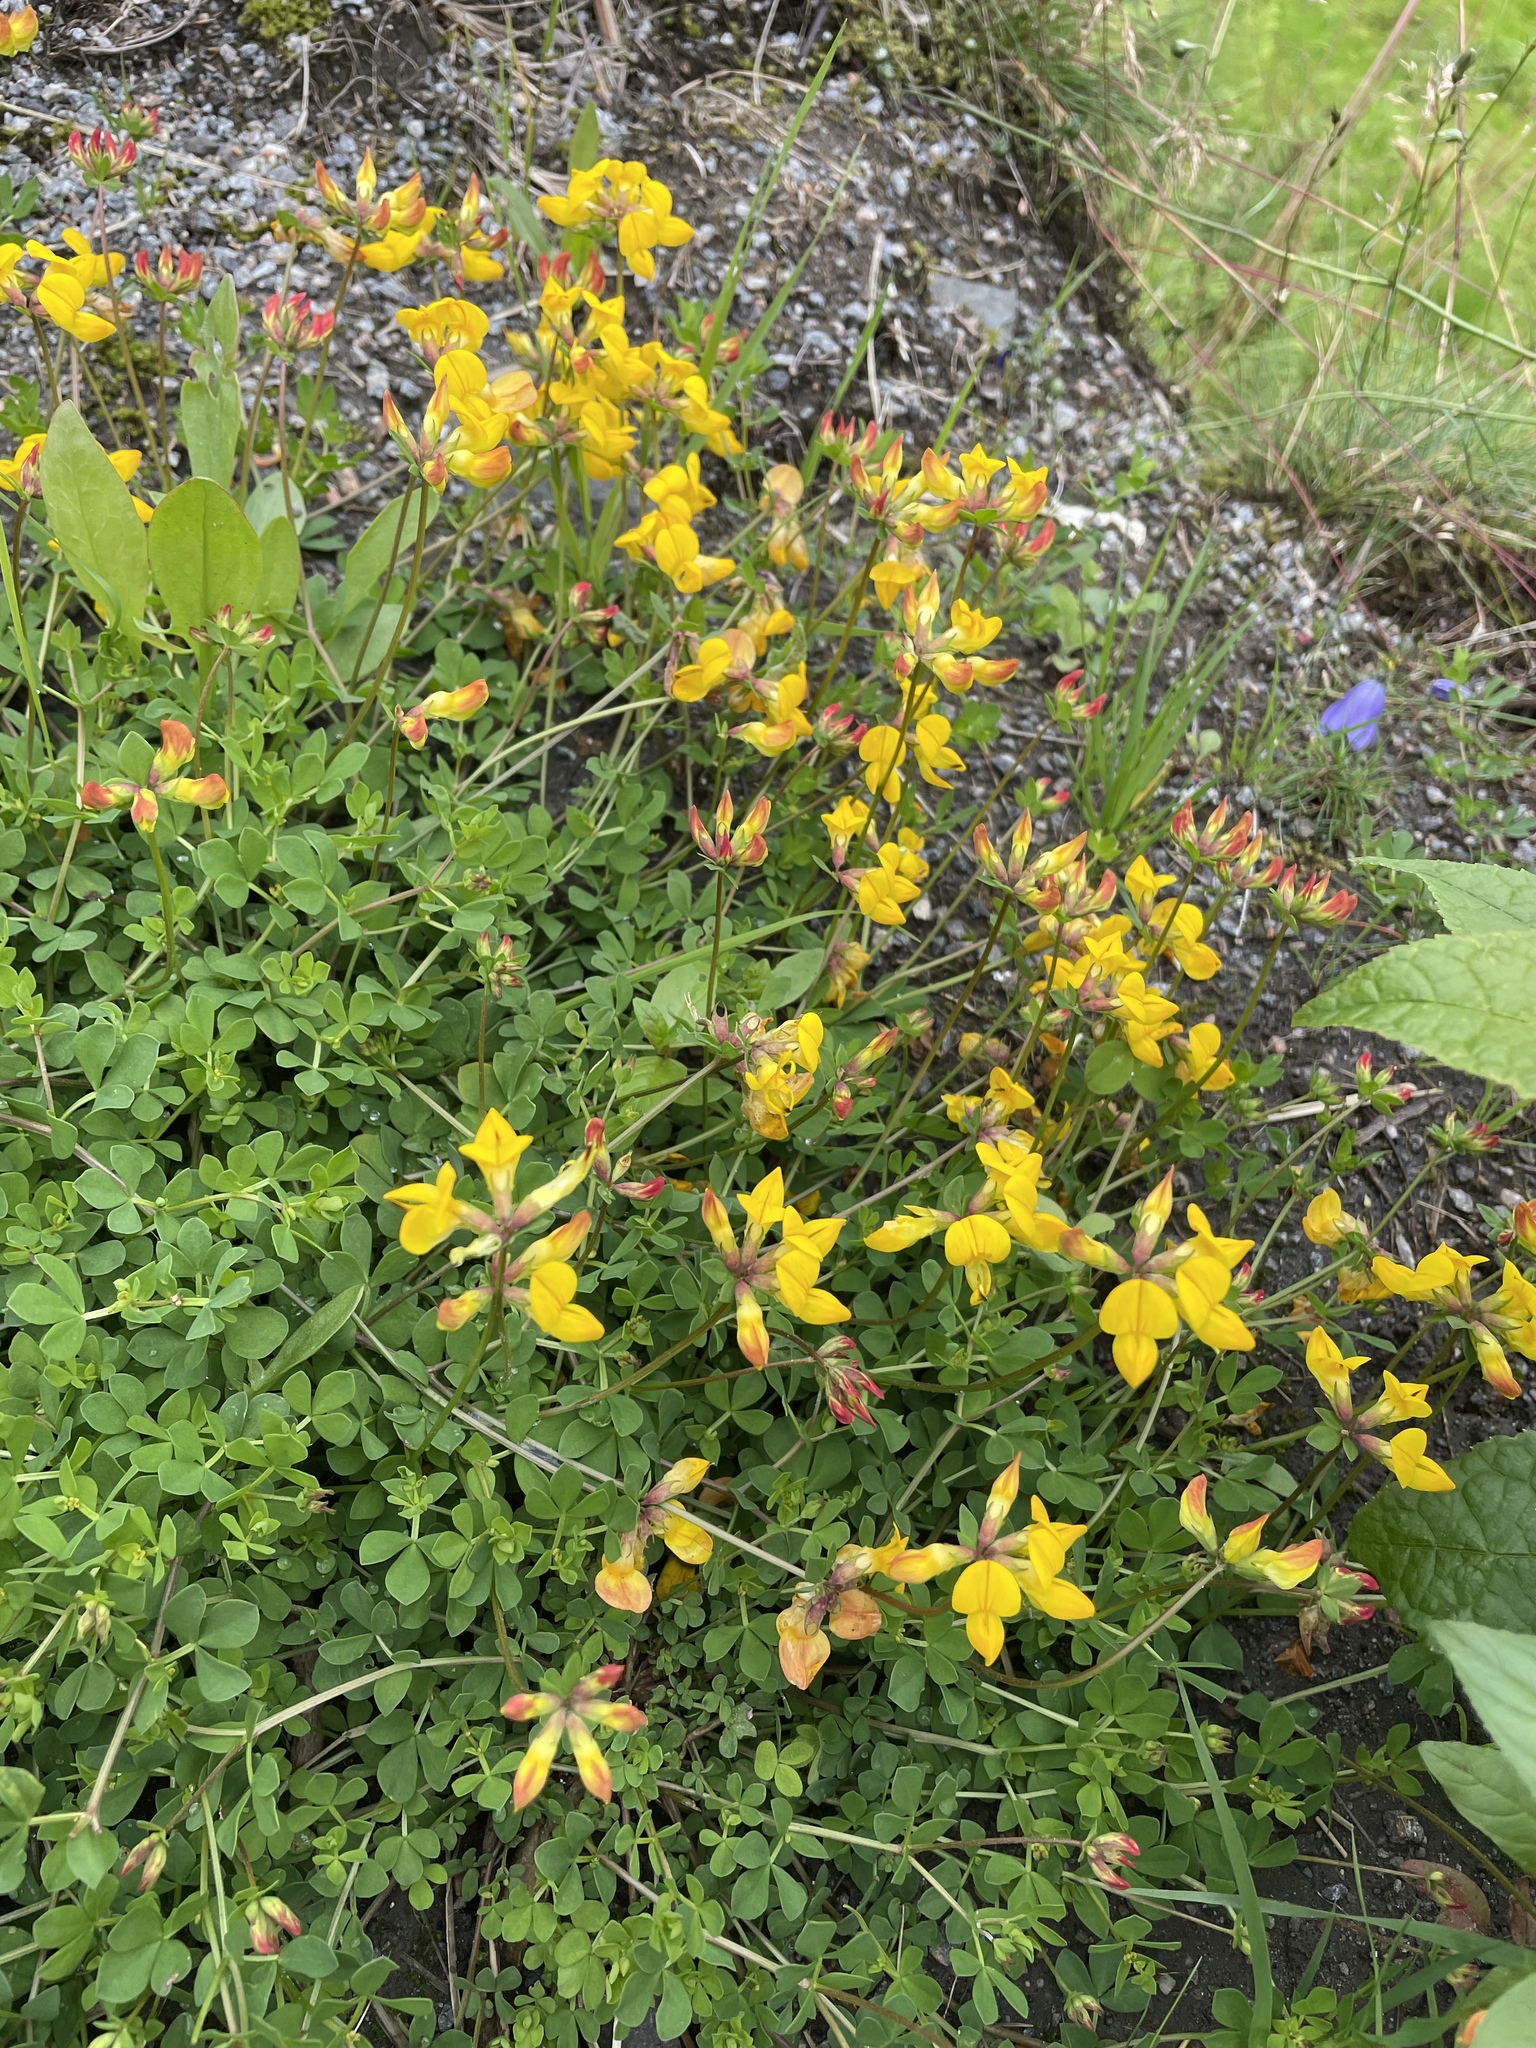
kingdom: Plantae
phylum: Tracheophyta
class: Magnoliopsida
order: Fabales
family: Fabaceae
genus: Lotus
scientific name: Lotus corniculatus
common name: Common bird's-foot-trefoil
